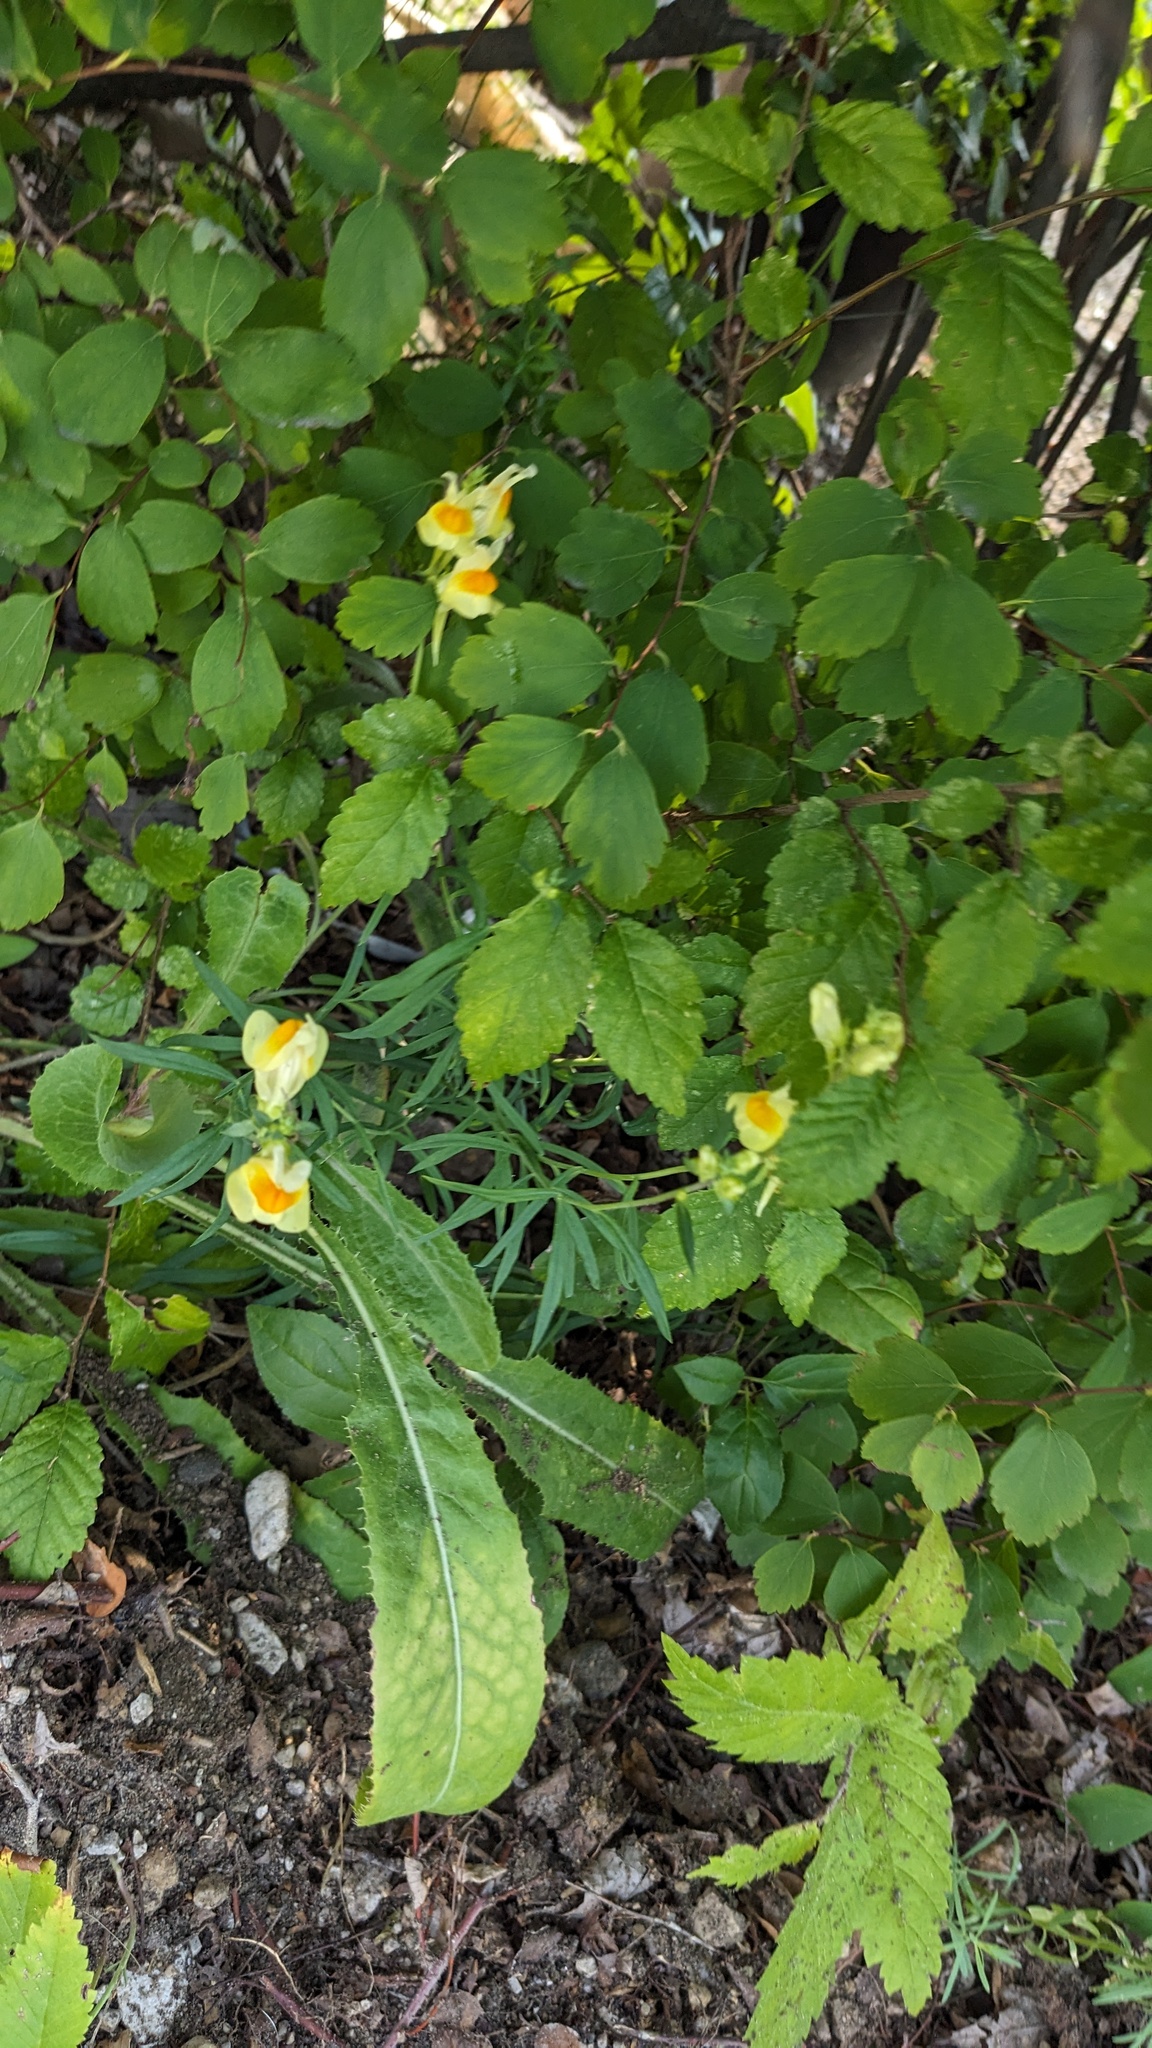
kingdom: Plantae
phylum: Tracheophyta
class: Magnoliopsida
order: Lamiales
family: Plantaginaceae
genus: Linaria
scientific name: Linaria vulgaris
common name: Butter and eggs
